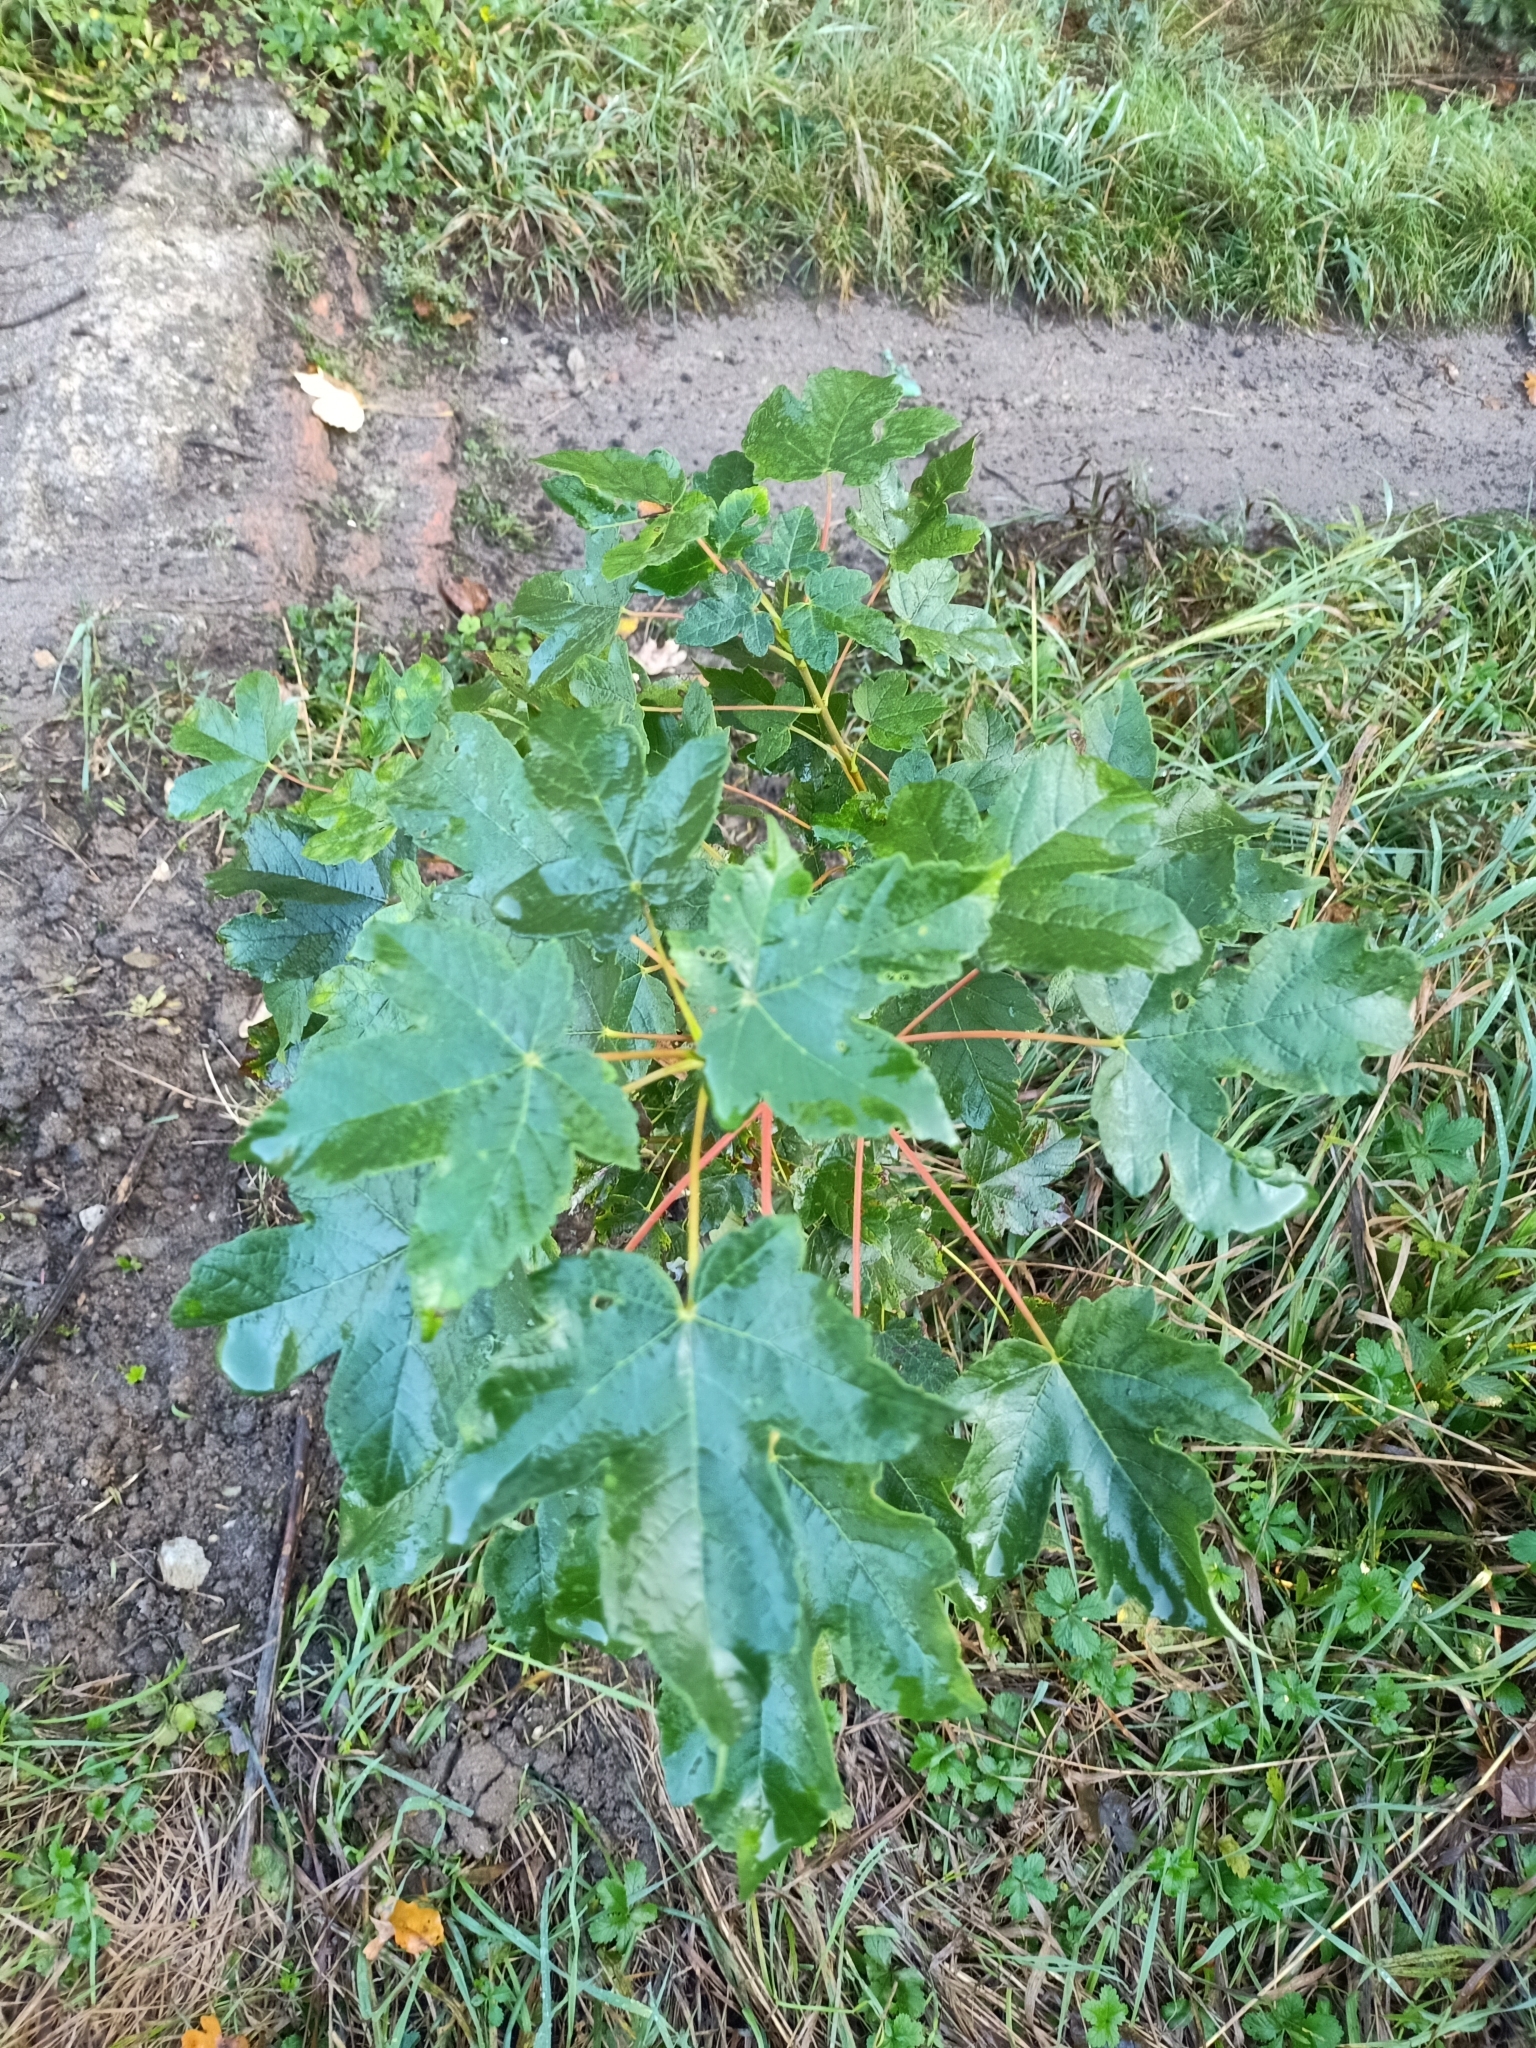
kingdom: Plantae
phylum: Tracheophyta
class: Magnoliopsida
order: Sapindales
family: Sapindaceae
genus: Acer
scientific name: Acer pseudoplatanus
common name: Sycamore
